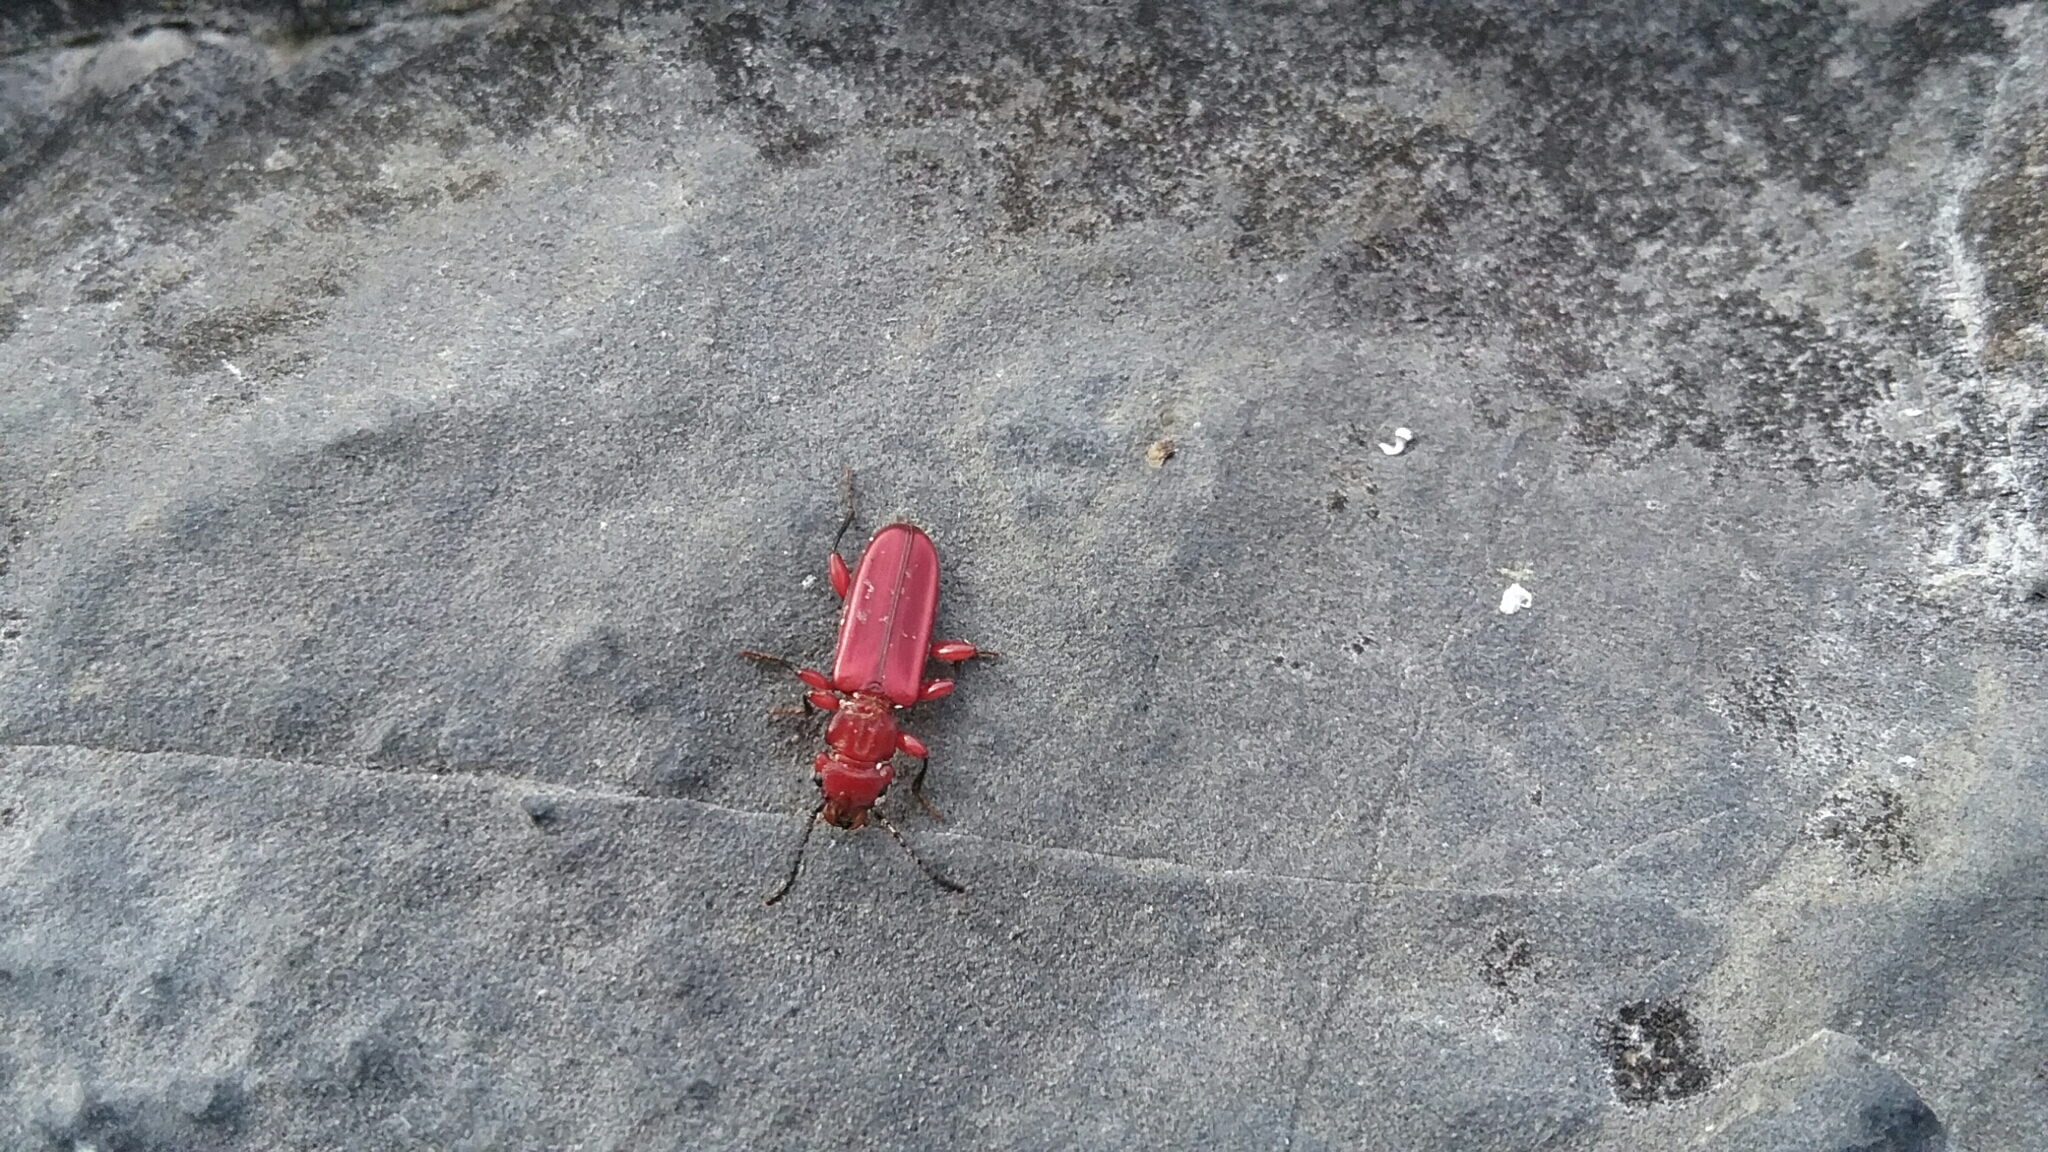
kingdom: Animalia
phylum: Arthropoda
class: Insecta
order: Coleoptera
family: Cucujidae
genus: Cucujus
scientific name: Cucujus clavipes
